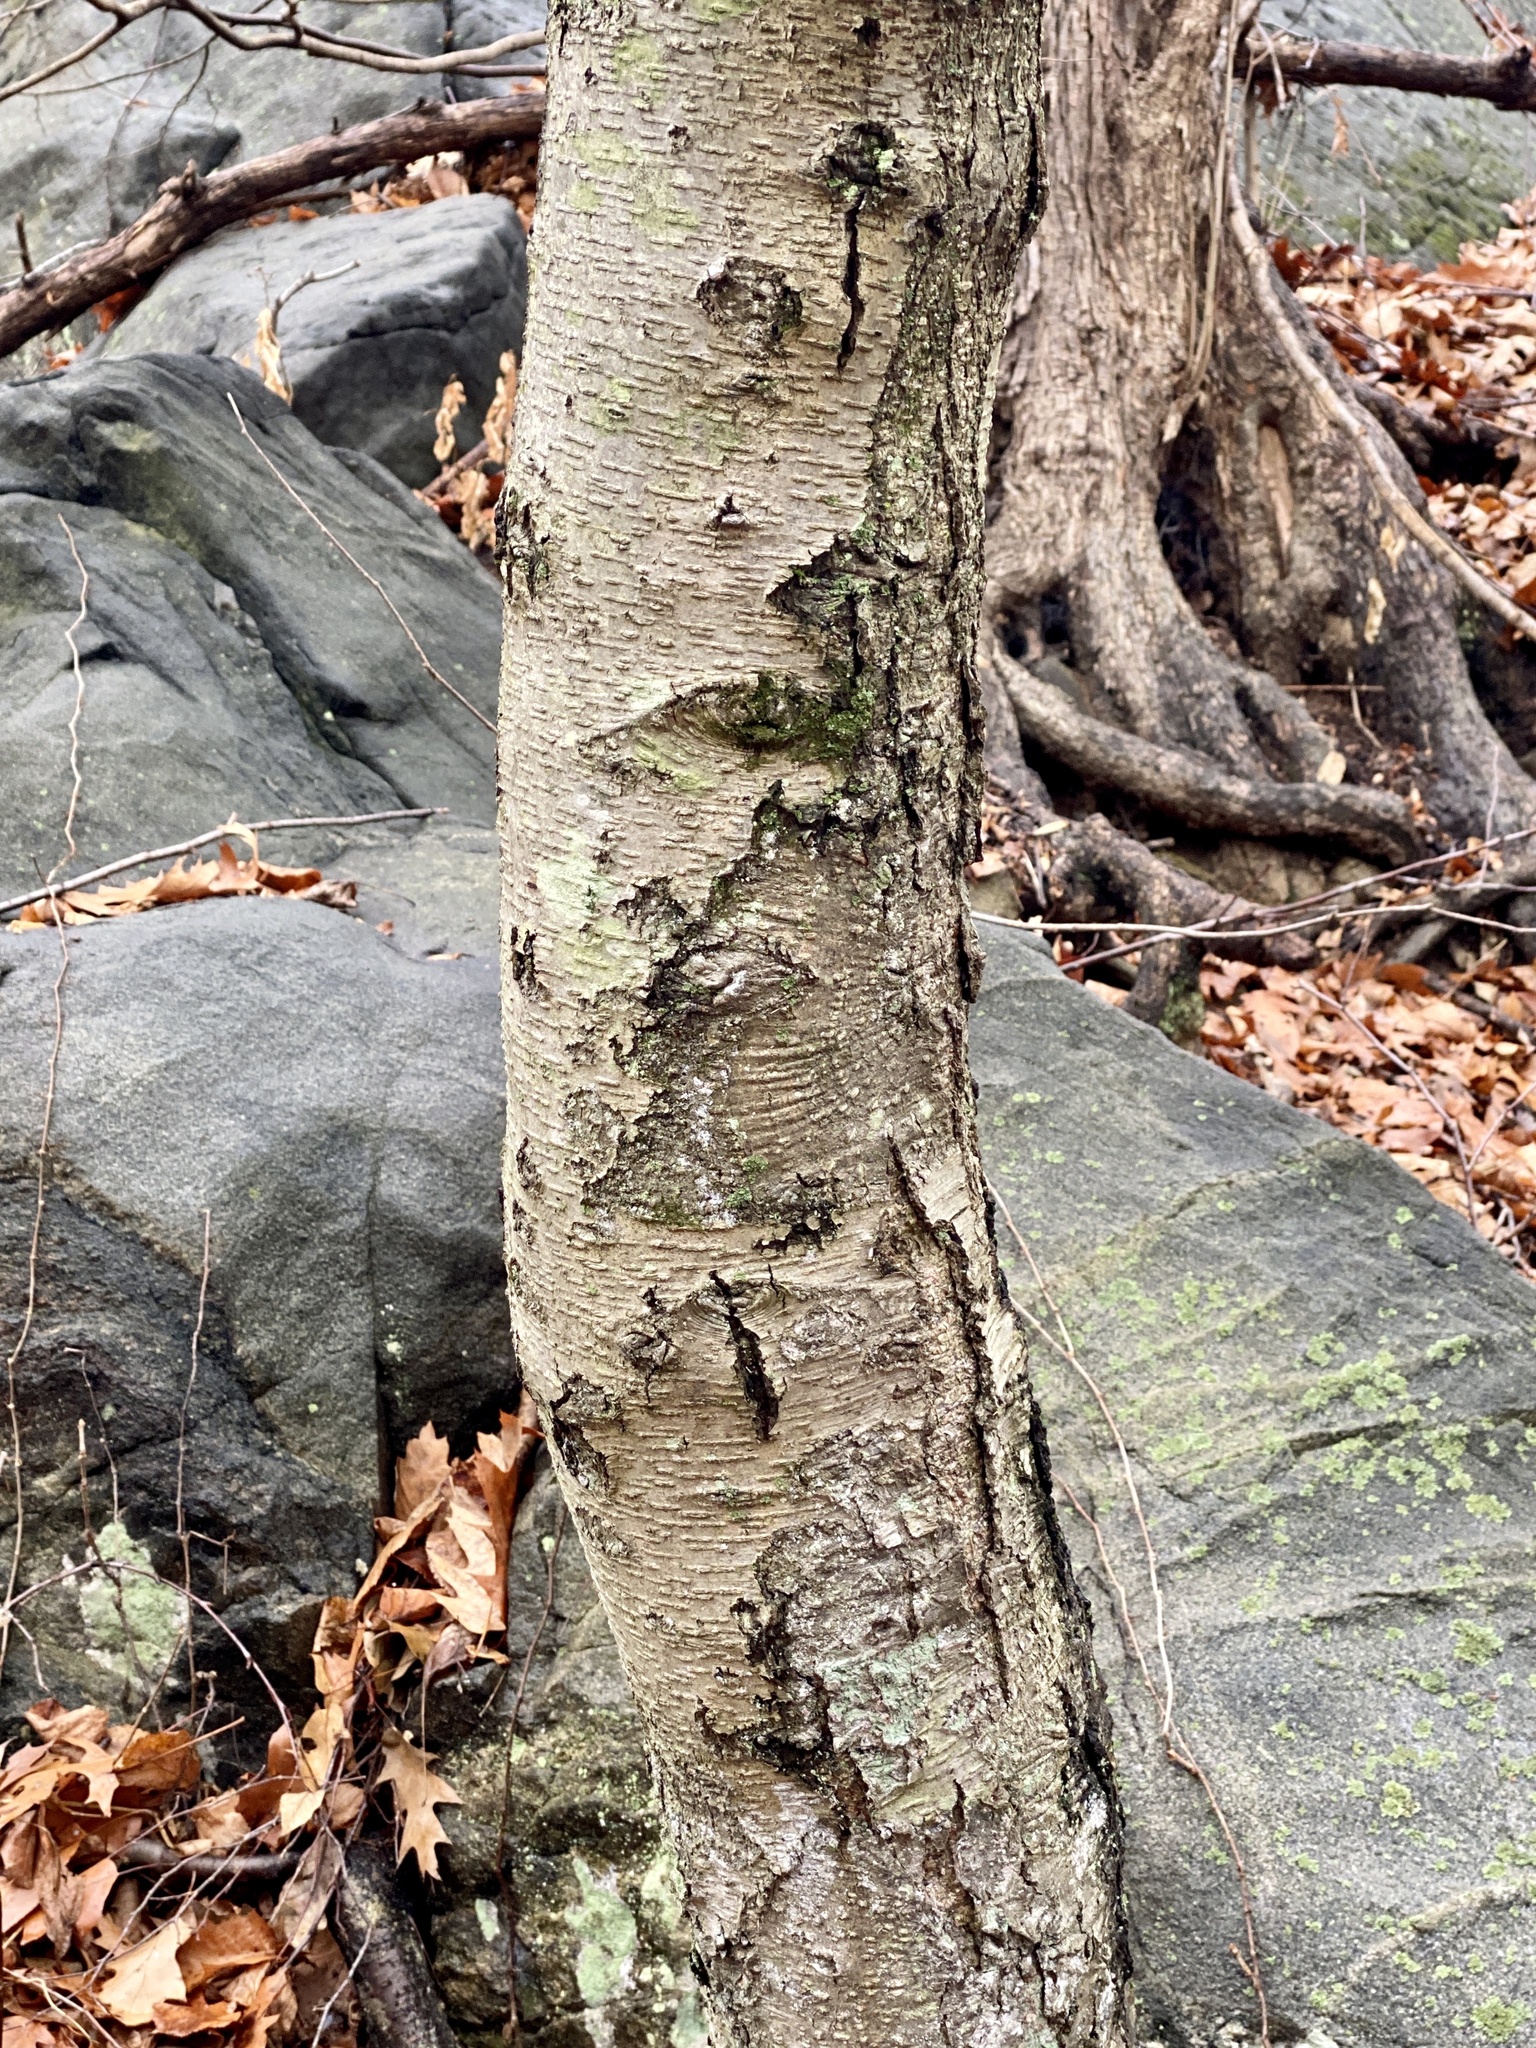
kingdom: Plantae
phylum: Tracheophyta
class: Magnoliopsida
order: Fagales
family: Betulaceae
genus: Betula
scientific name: Betula lenta
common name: Black birch
